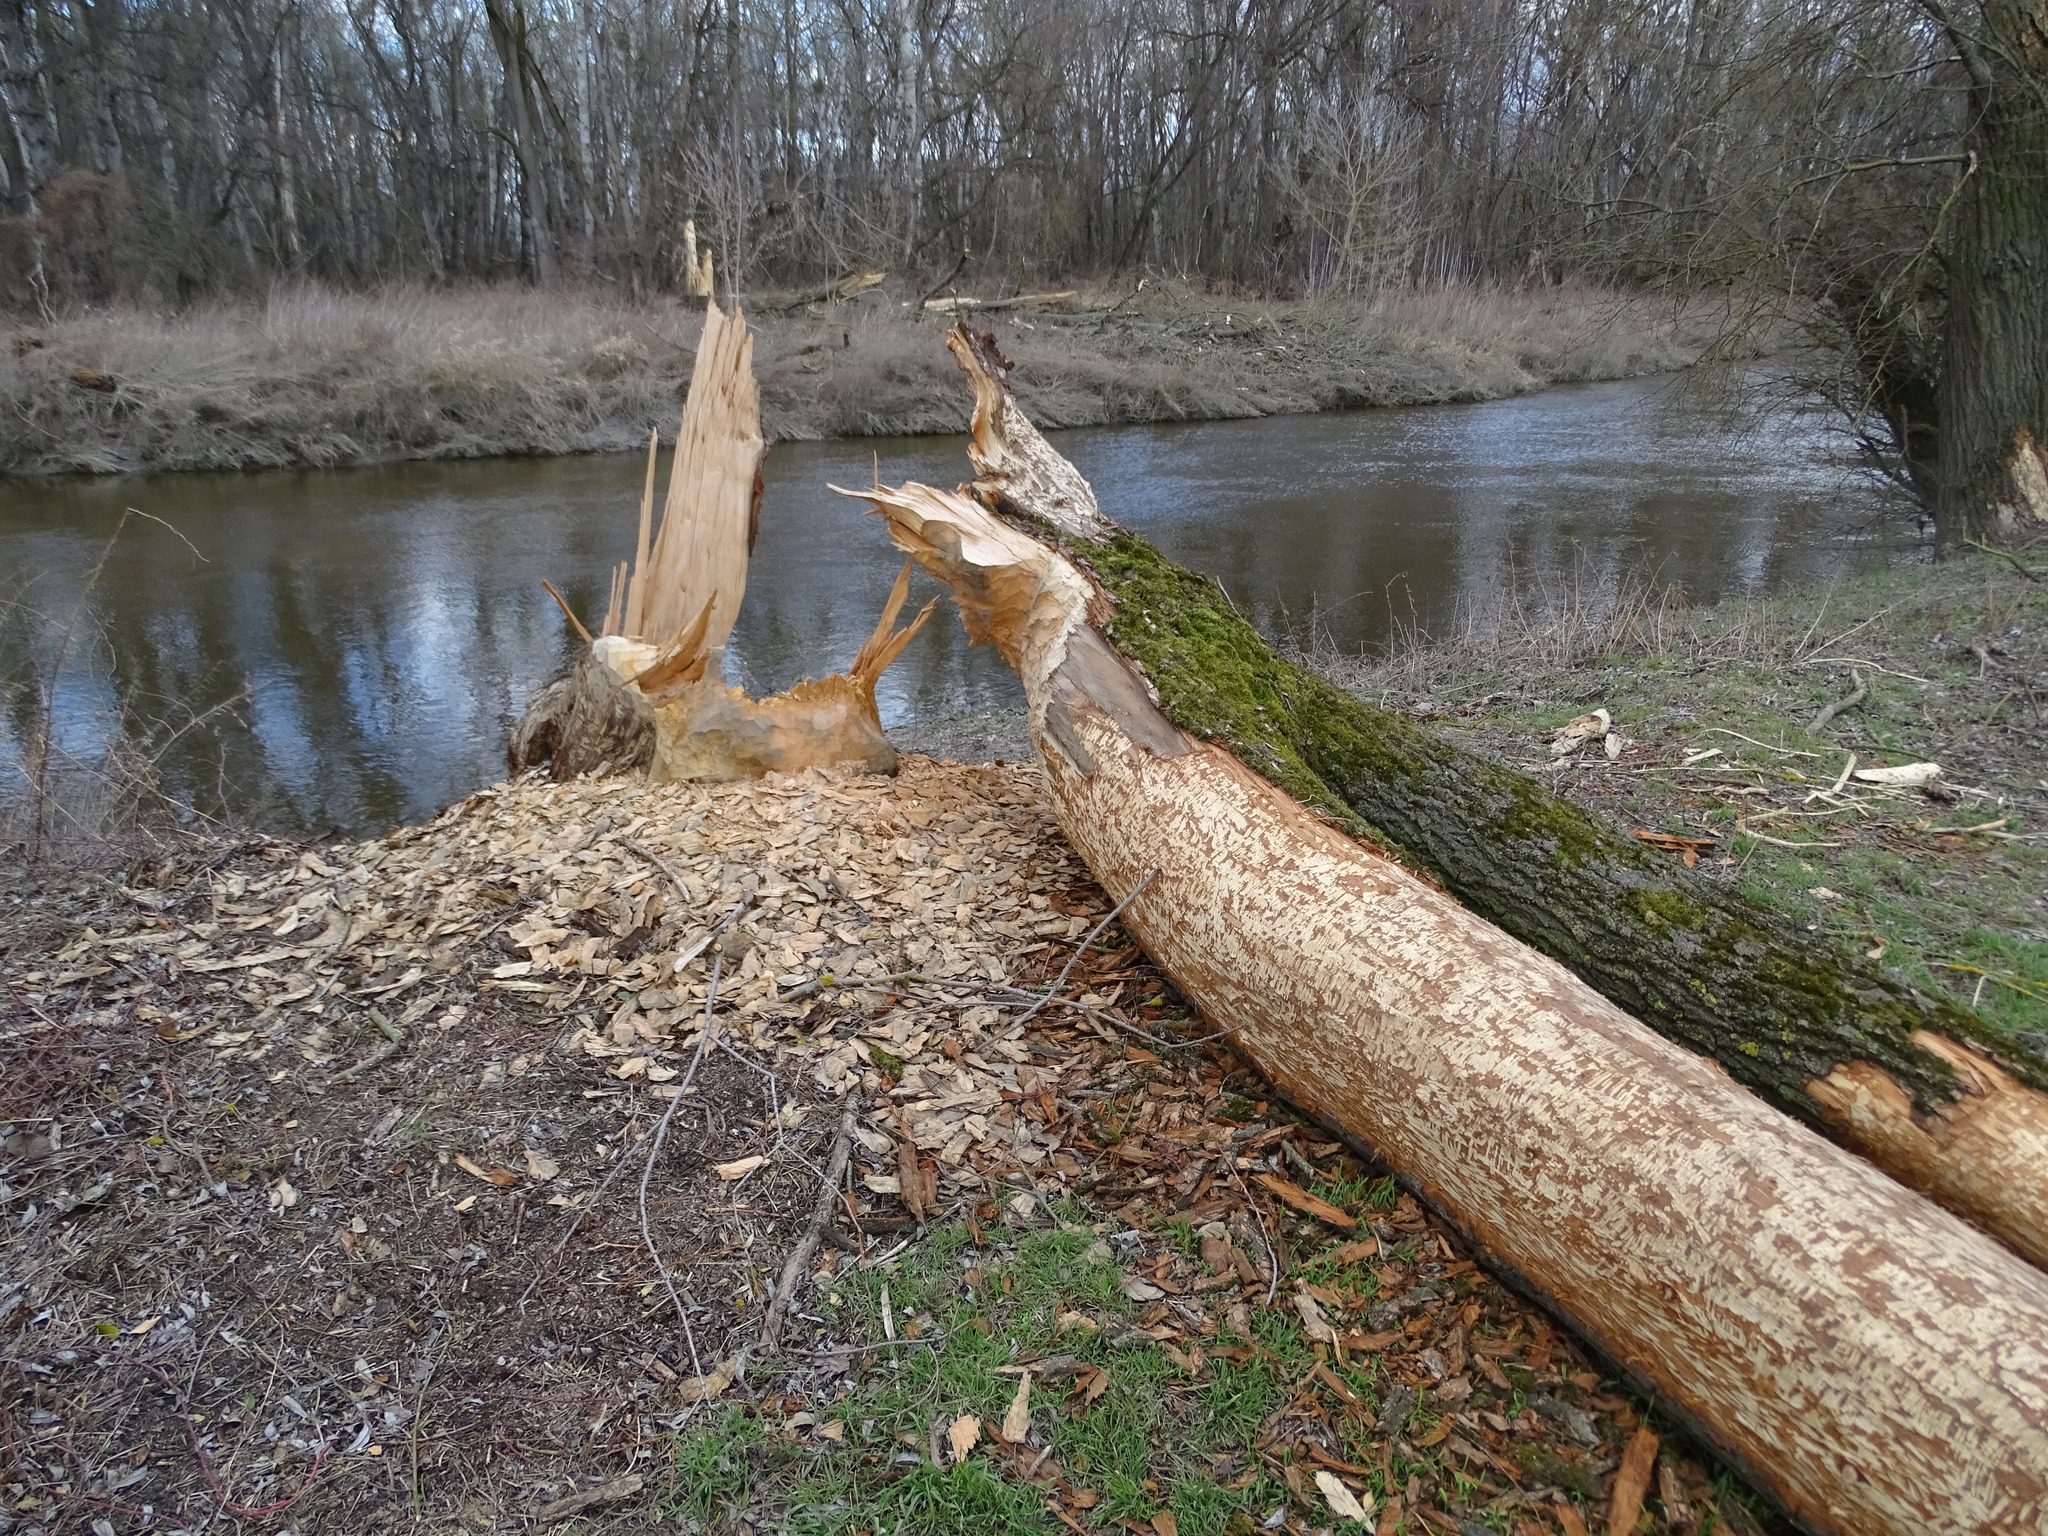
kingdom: Animalia
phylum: Chordata
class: Mammalia
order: Rodentia
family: Castoridae
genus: Castor
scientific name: Castor fiber
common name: Eurasian beaver
